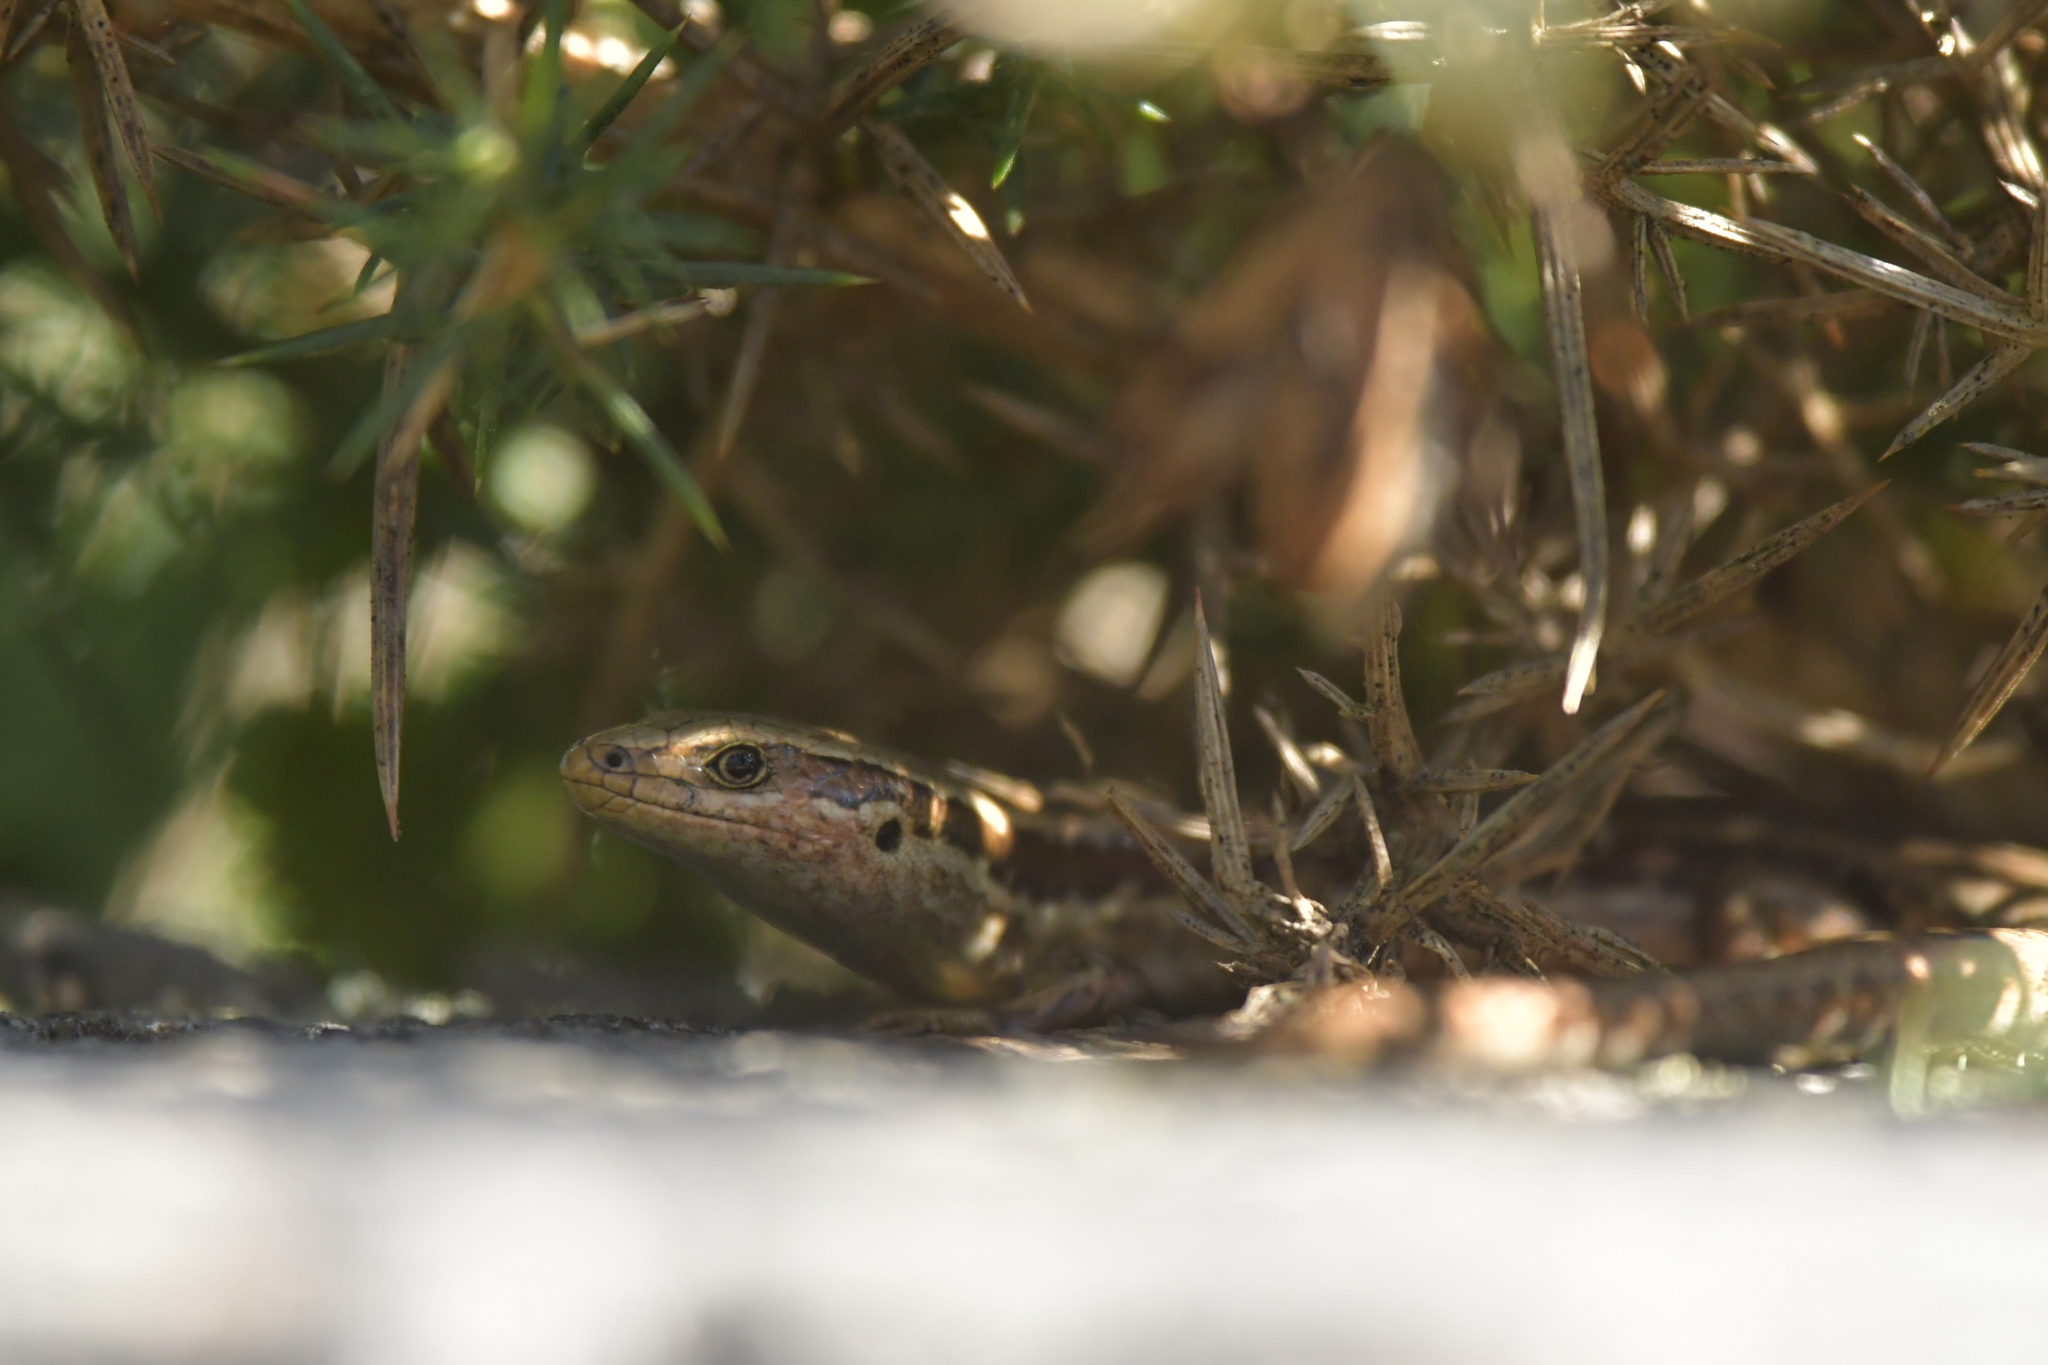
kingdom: Animalia
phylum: Chordata
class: Squamata
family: Scincidae
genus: Oligosoma
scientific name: Oligosoma polychroma
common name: Common new zealand skink
